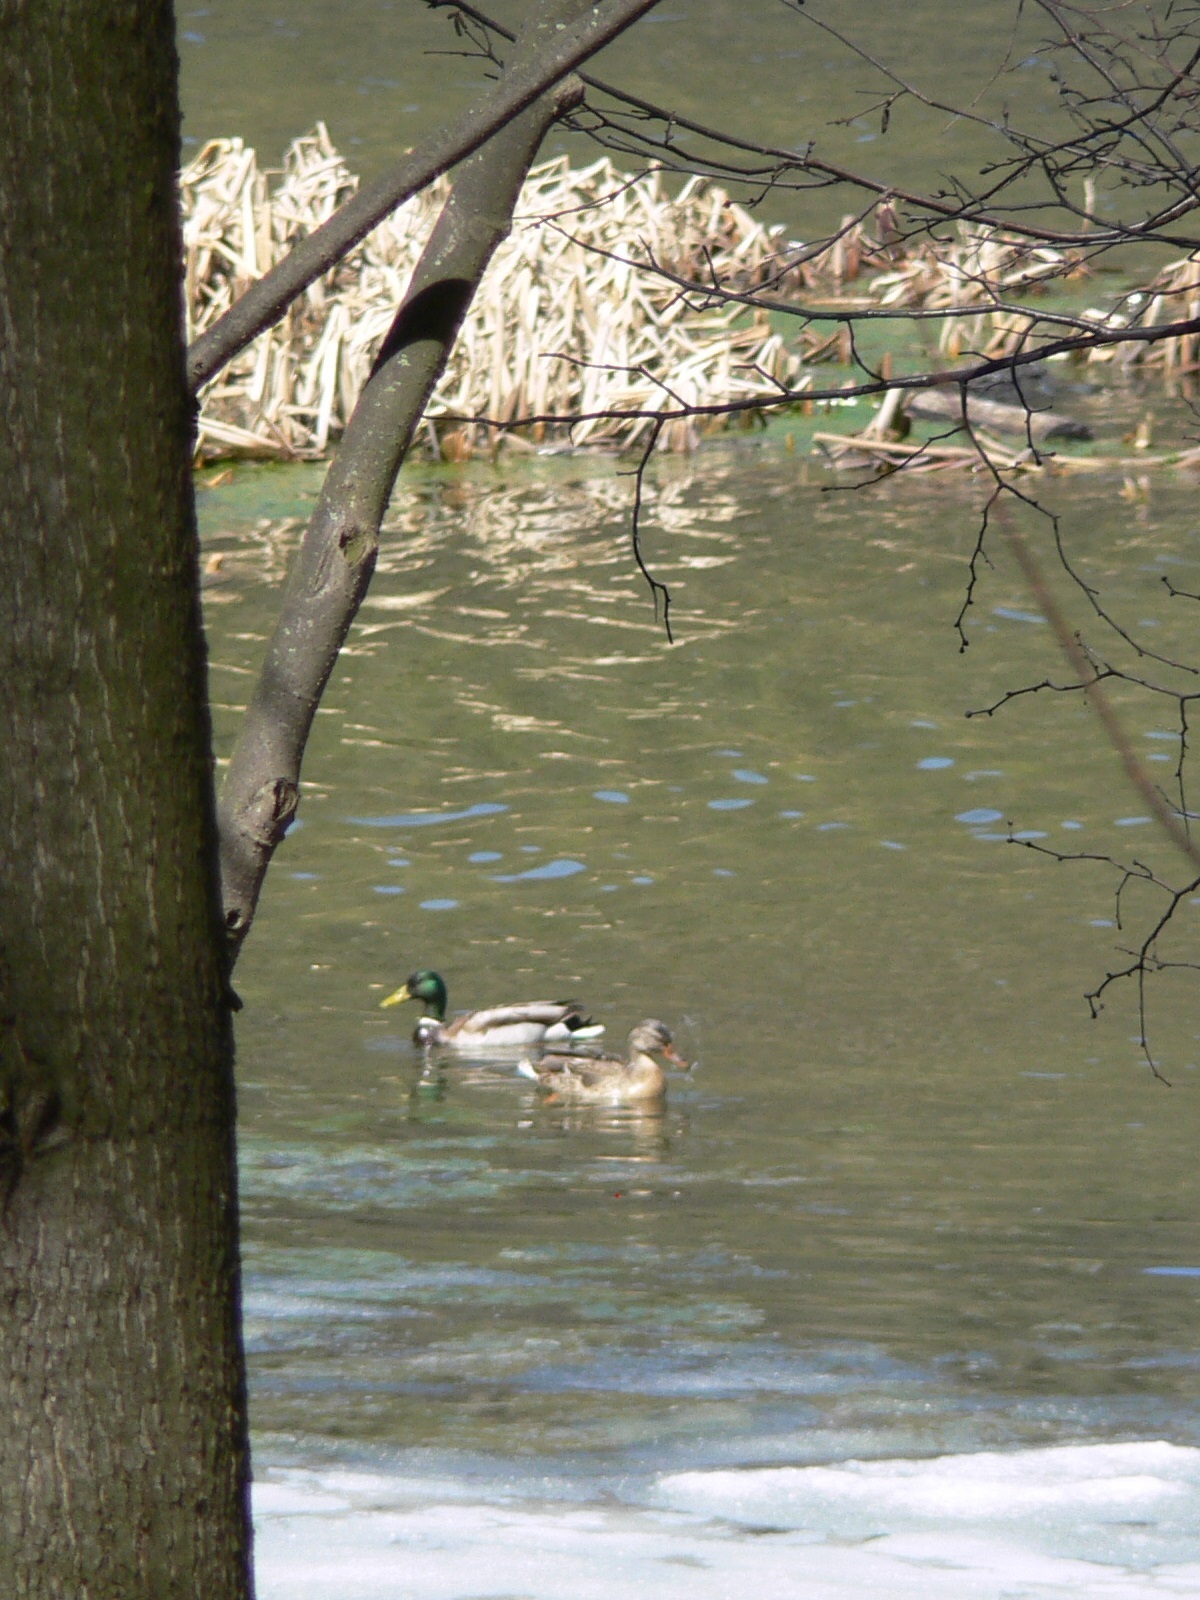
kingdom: Animalia
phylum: Chordata
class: Aves
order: Anseriformes
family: Anatidae
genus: Anas
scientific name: Anas platyrhynchos
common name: Mallard
